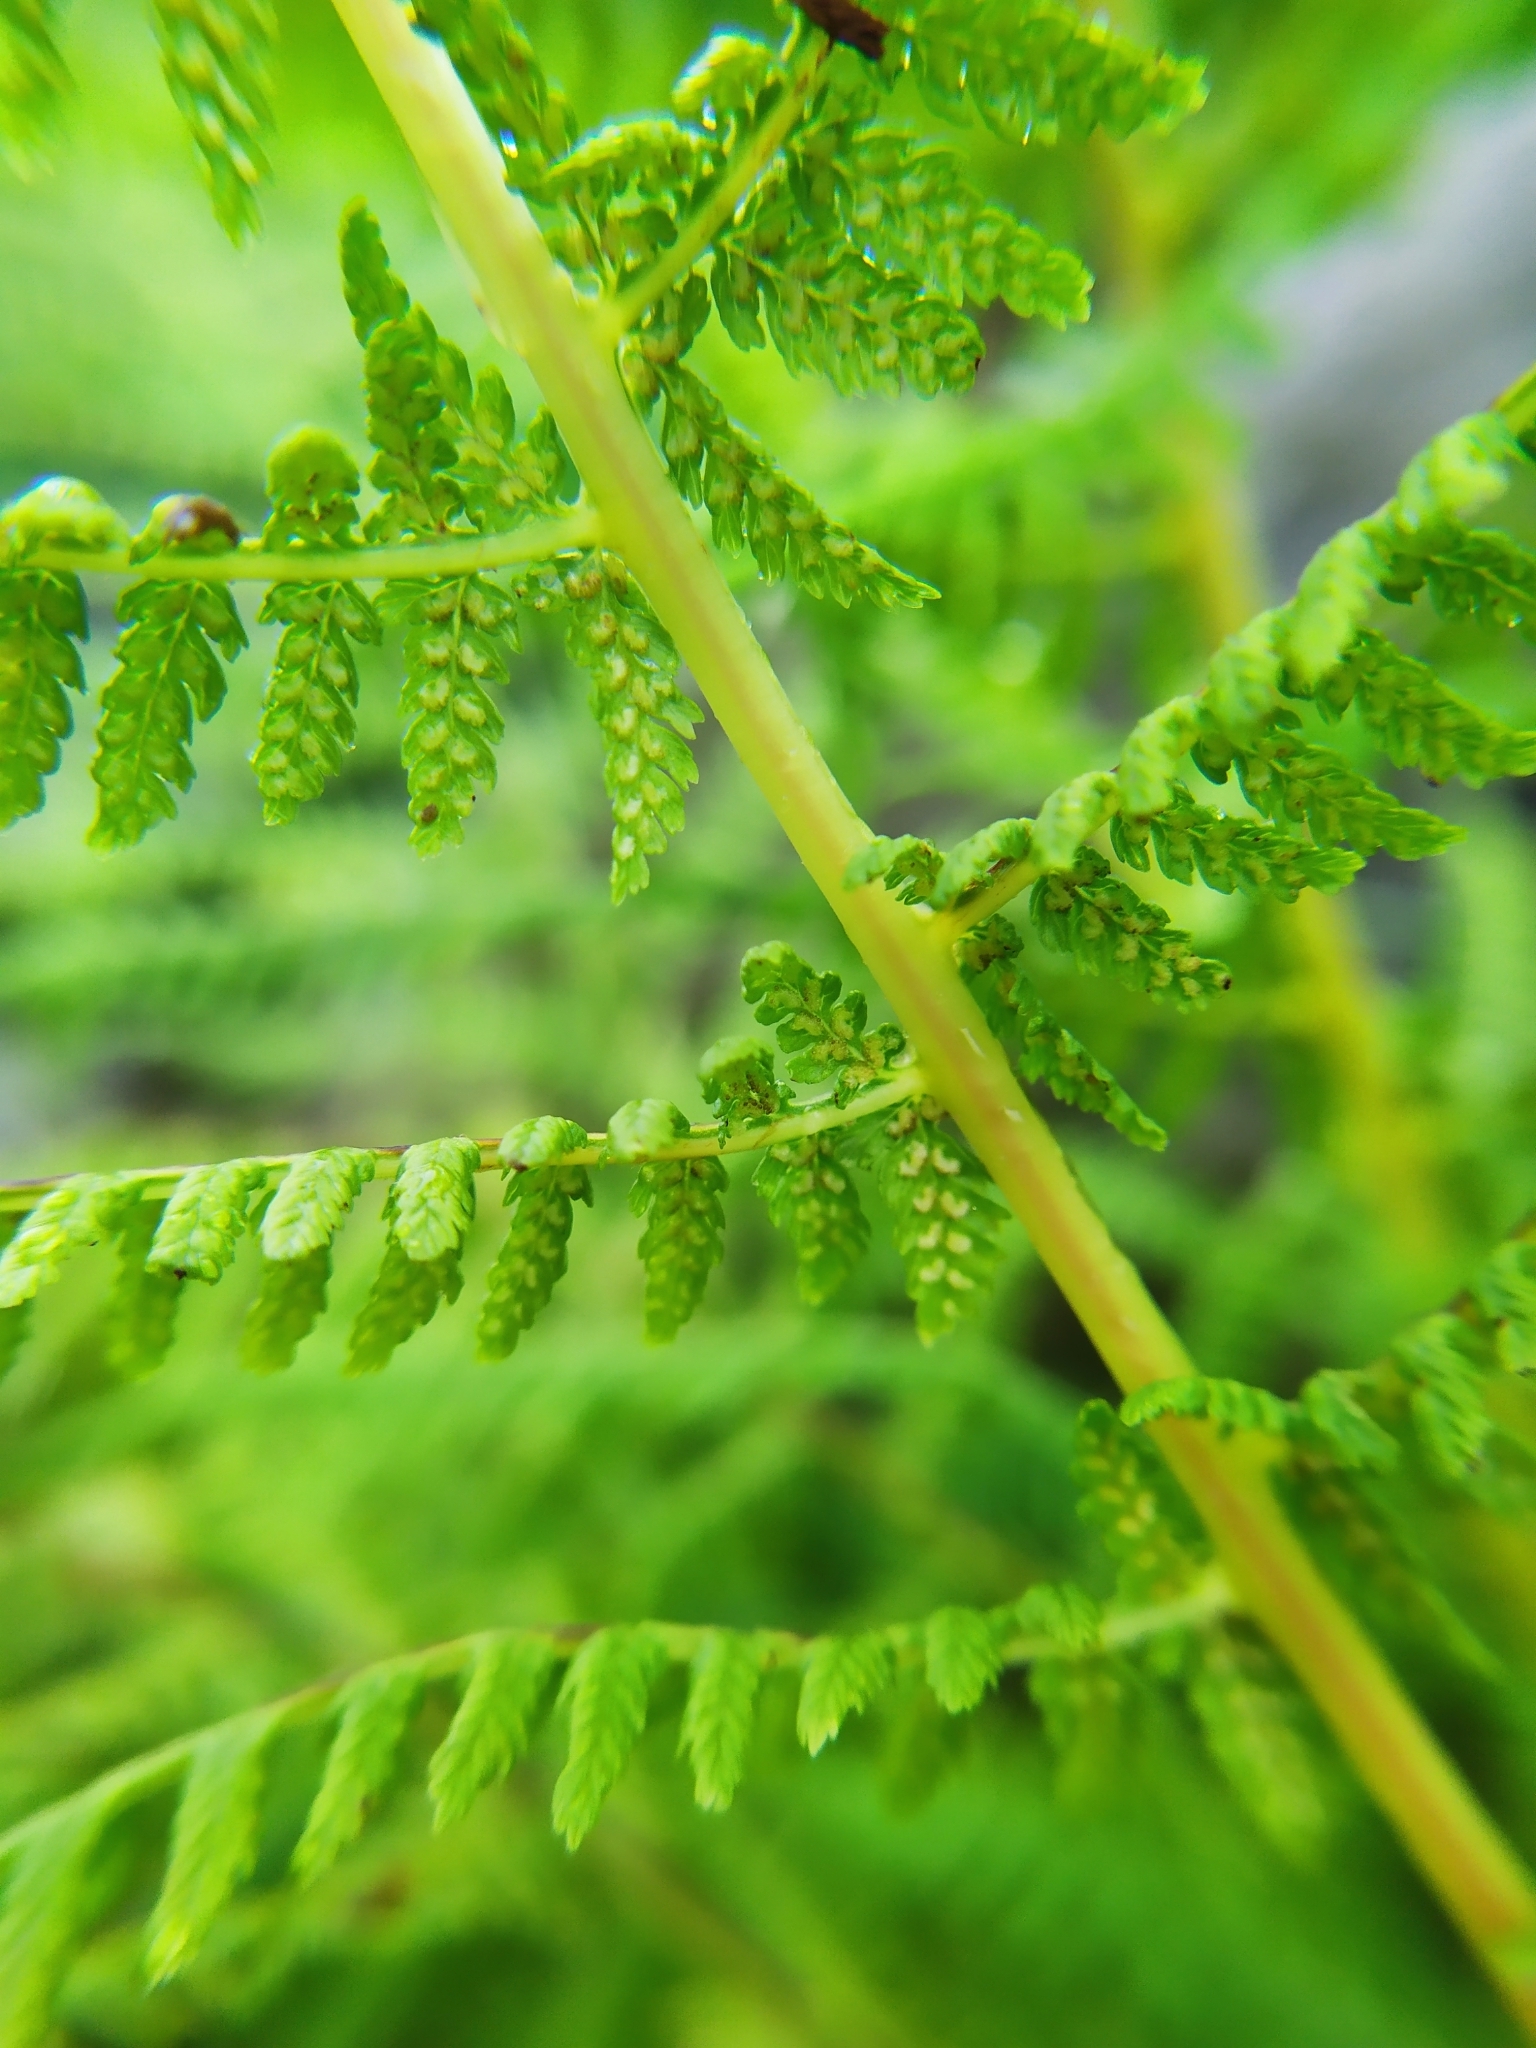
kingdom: Plantae
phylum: Tracheophyta
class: Polypodiopsida
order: Polypodiales
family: Athyriaceae
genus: Athyrium
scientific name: Athyrium filix-femina
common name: Lady fern
